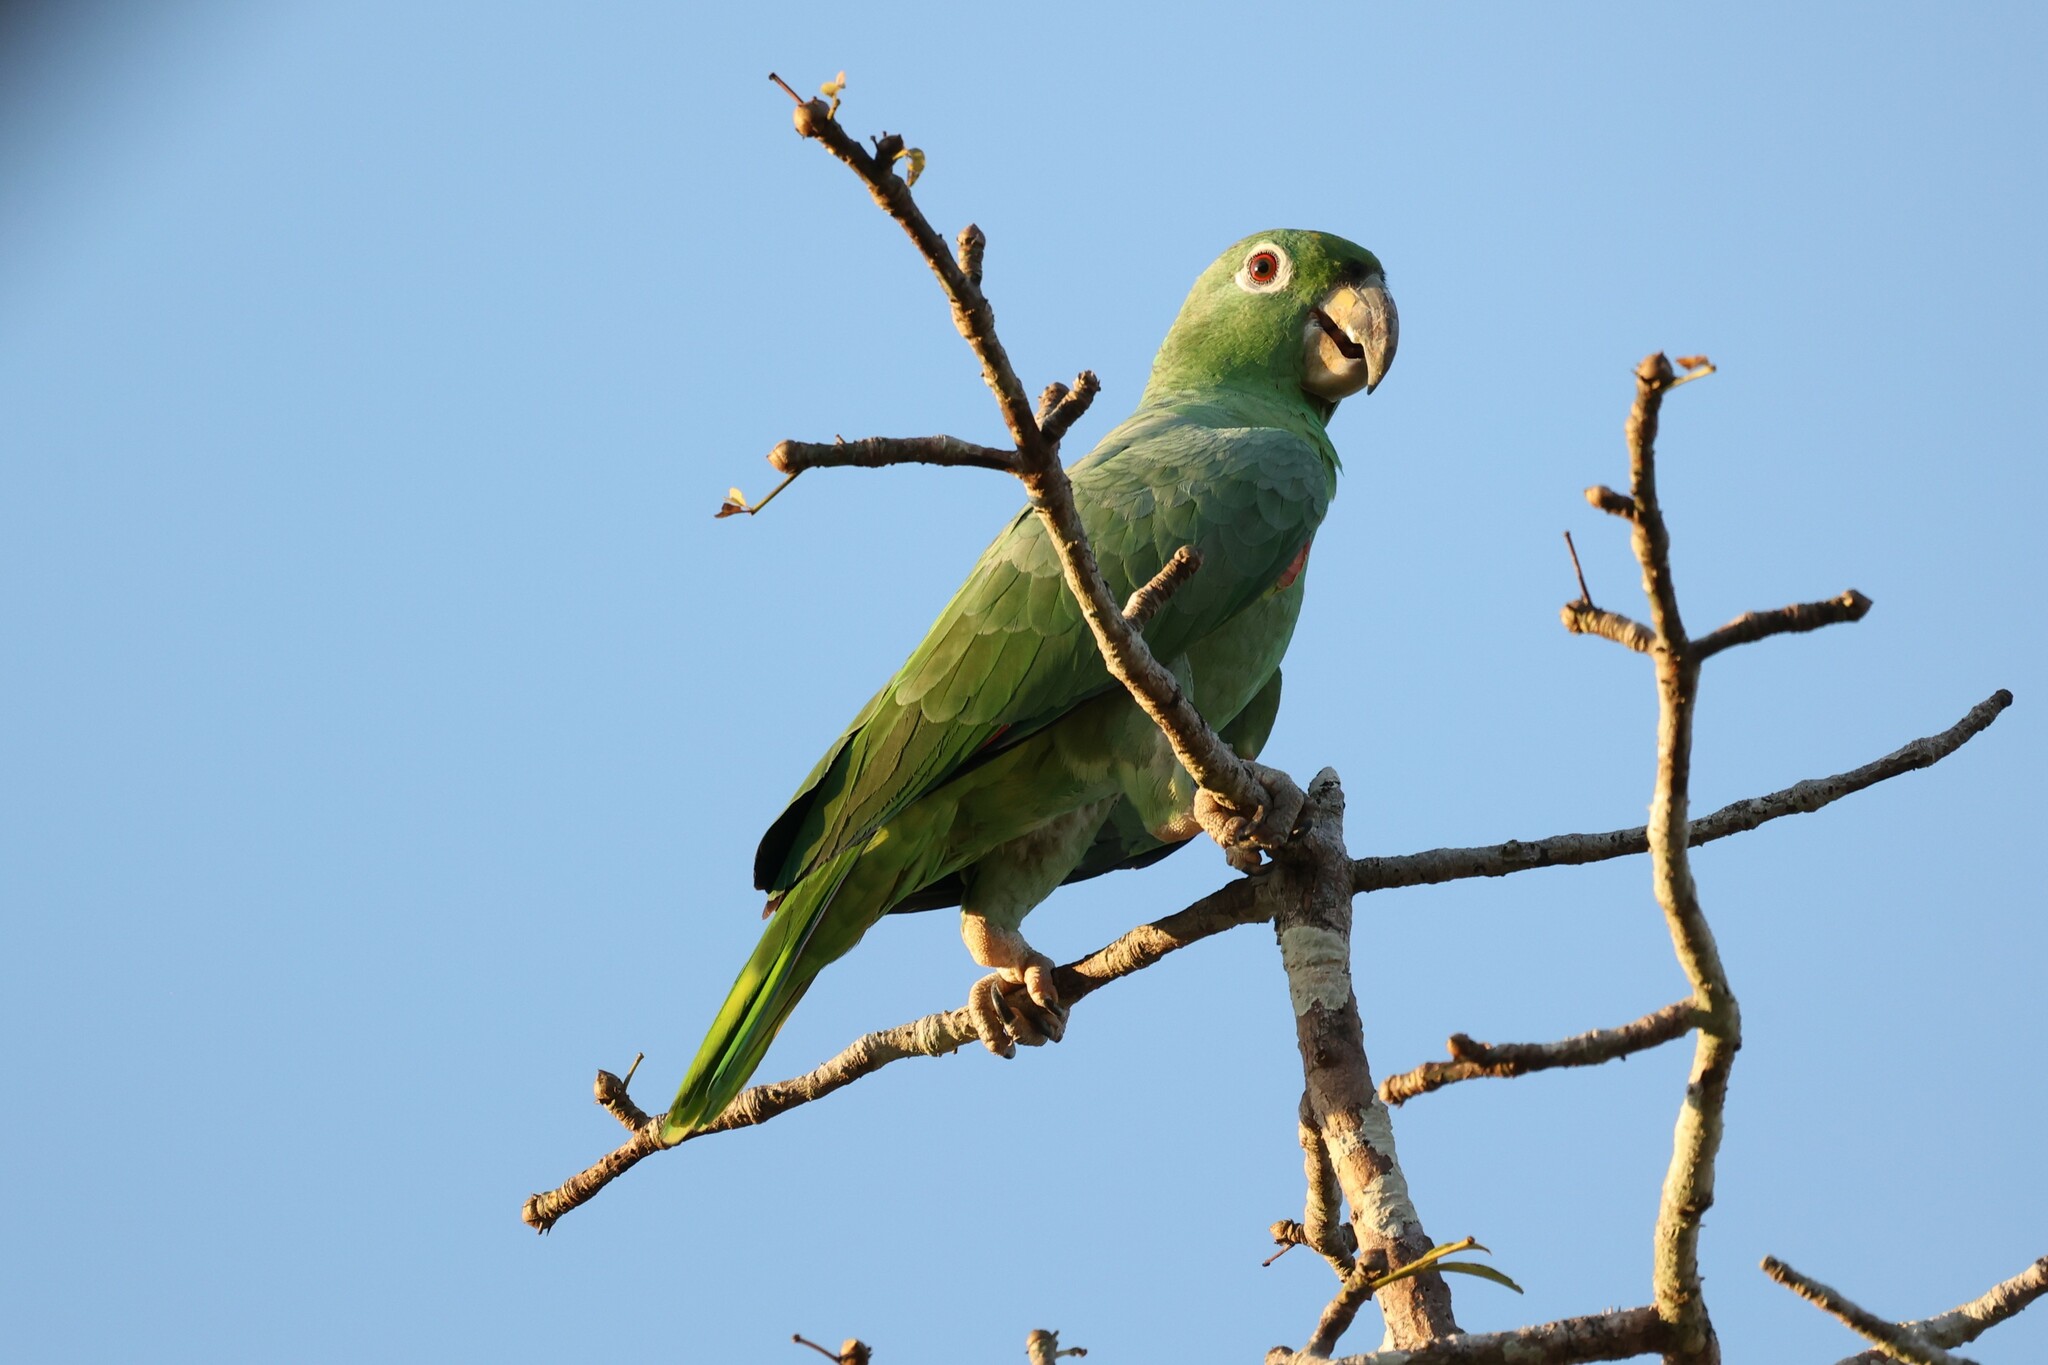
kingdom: Animalia
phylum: Chordata
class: Aves
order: Psittaciformes
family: Psittacidae
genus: Amazona
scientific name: Amazona farinosa
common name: Mealy parrot
